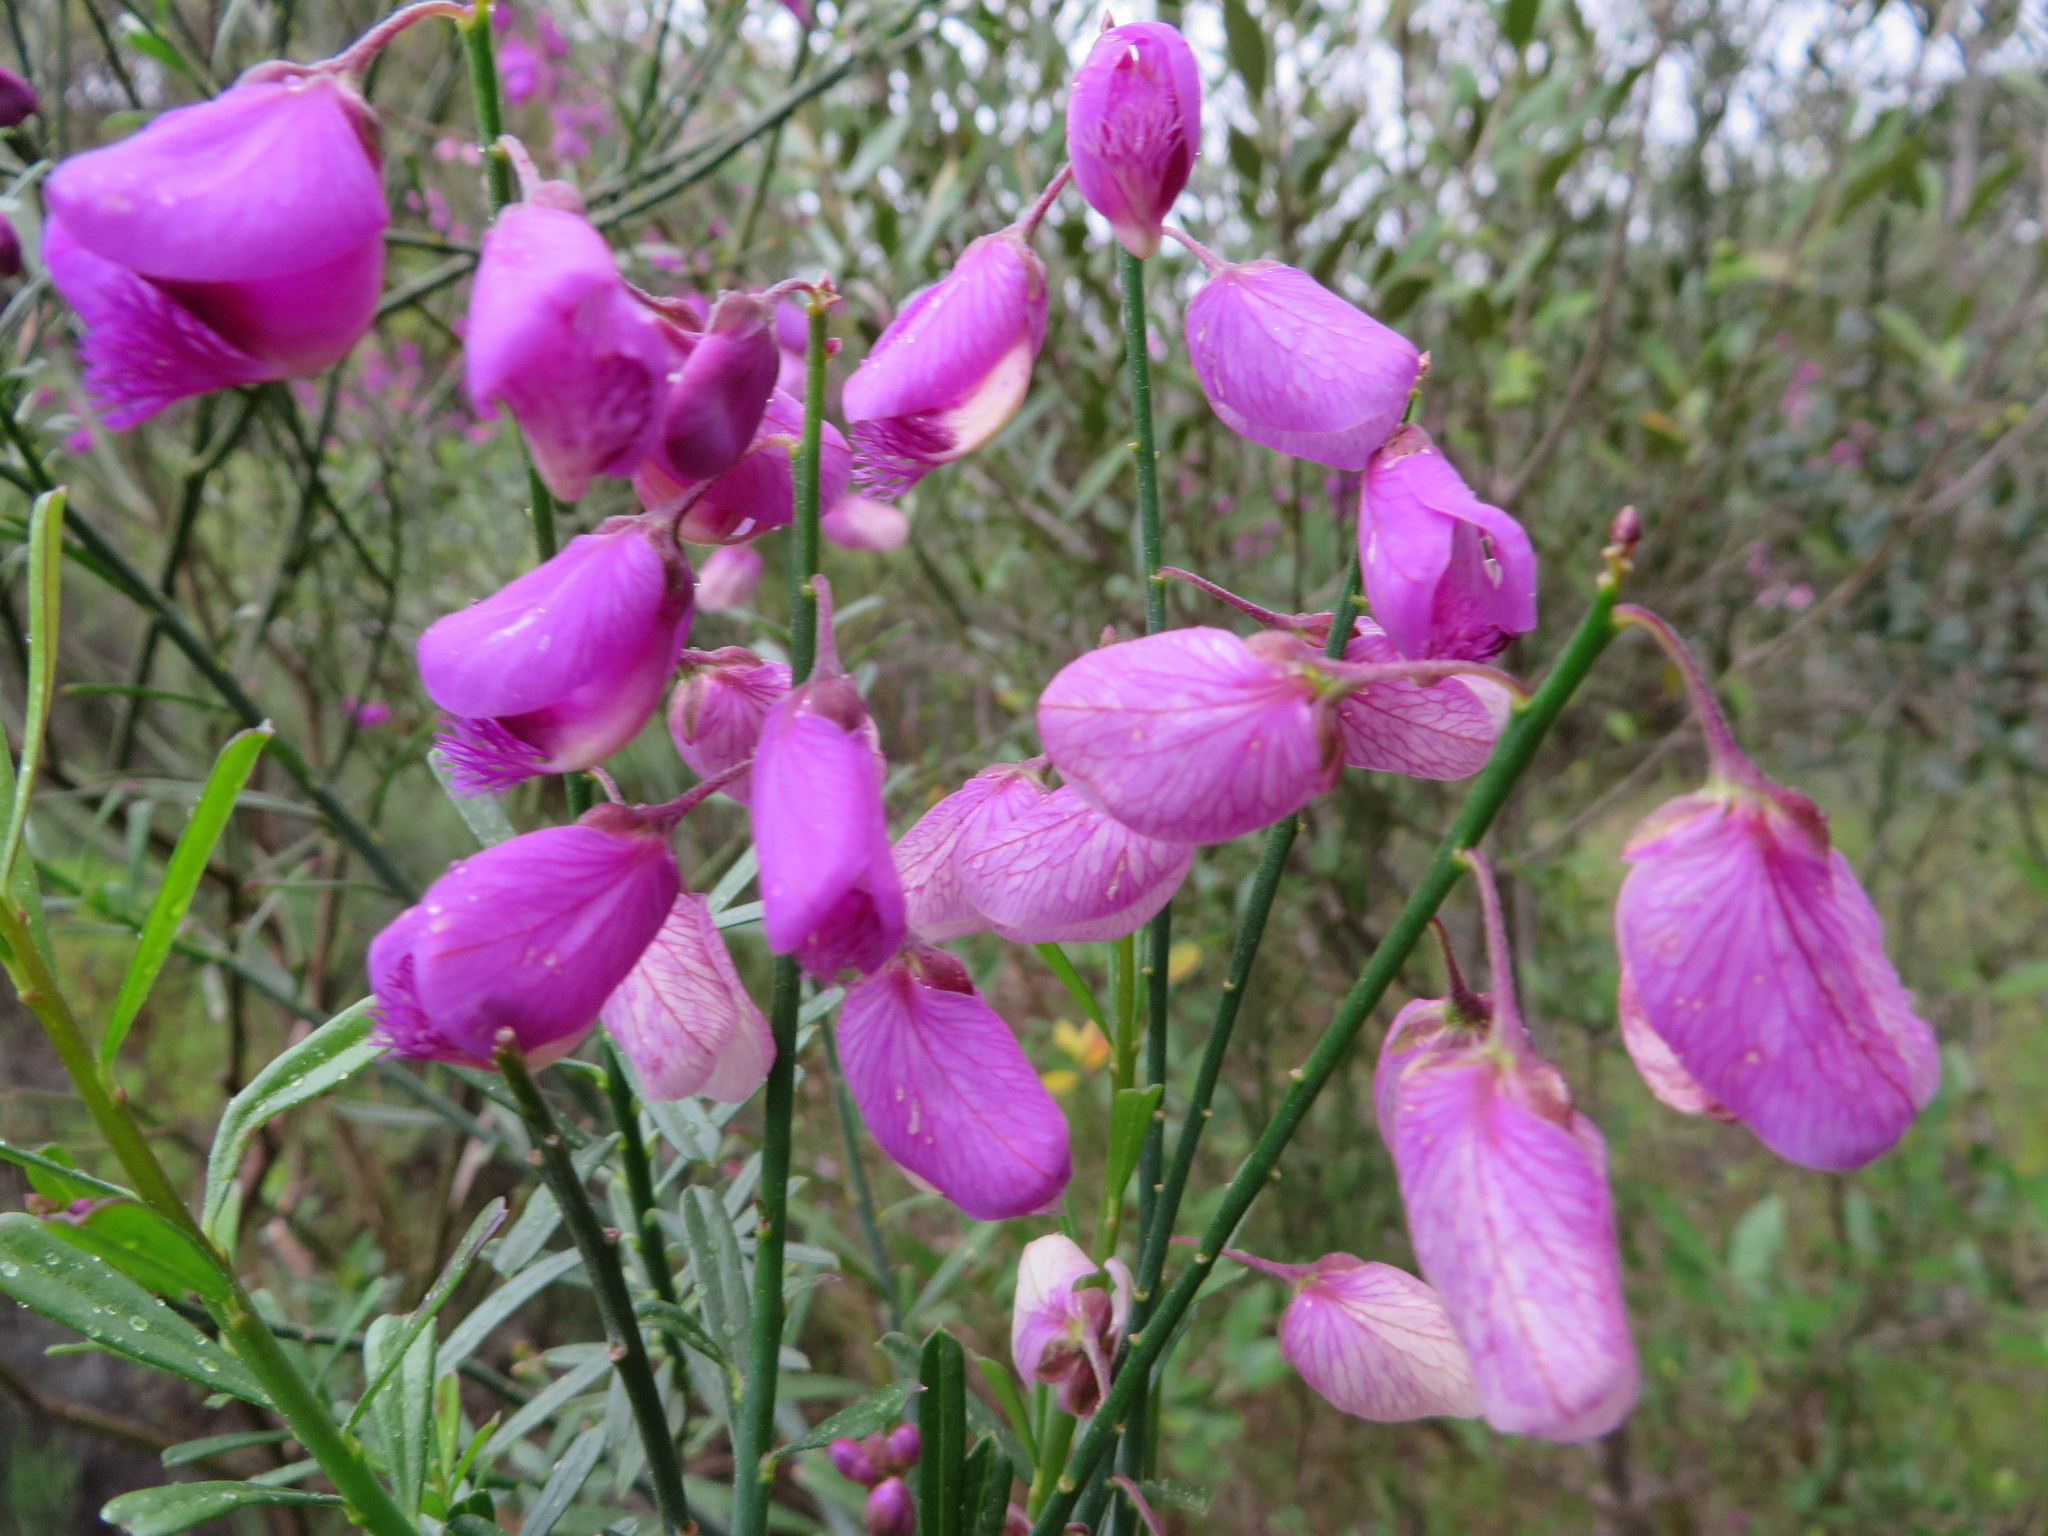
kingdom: Plantae
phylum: Tracheophyta
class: Magnoliopsida
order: Fabales
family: Polygalaceae
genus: Polygala
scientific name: Polygala virgata
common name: Milkwort
